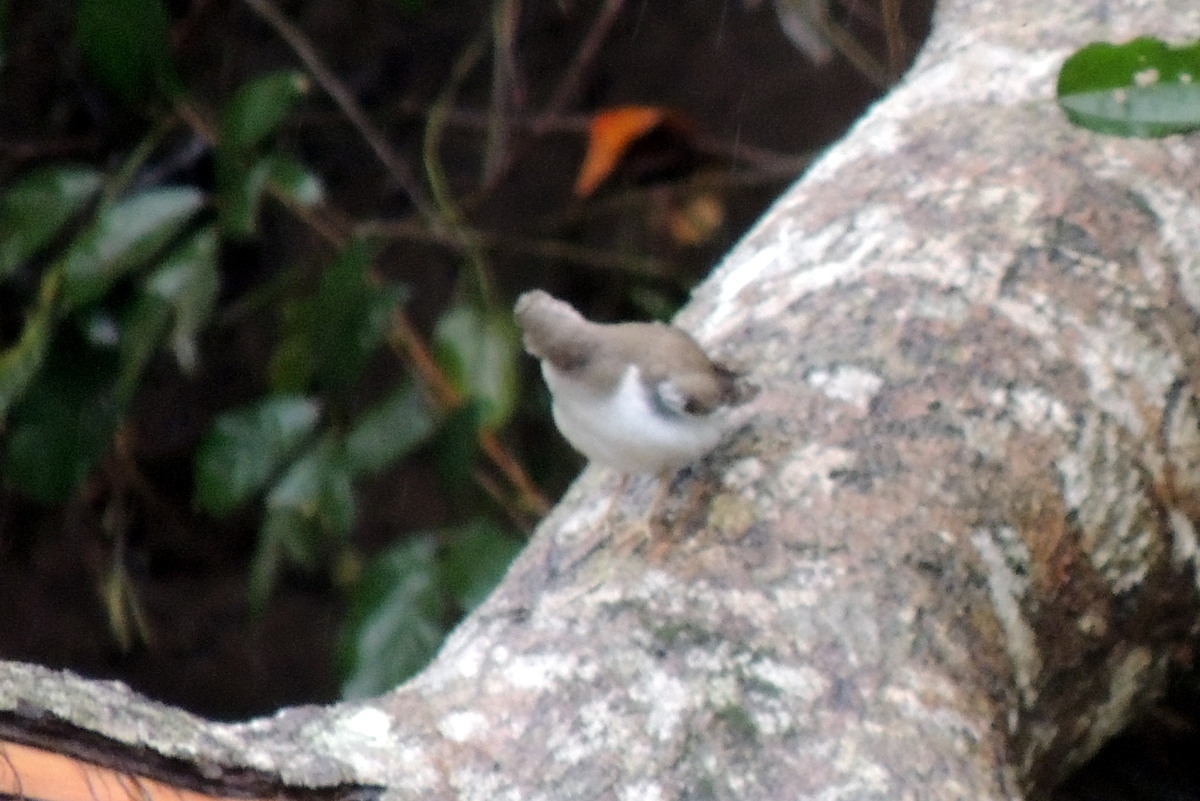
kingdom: Animalia
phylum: Chordata
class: Aves
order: Charadriiformes
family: Scolopacidae
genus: Actitis
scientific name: Actitis macularius
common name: Spotted sandpiper
